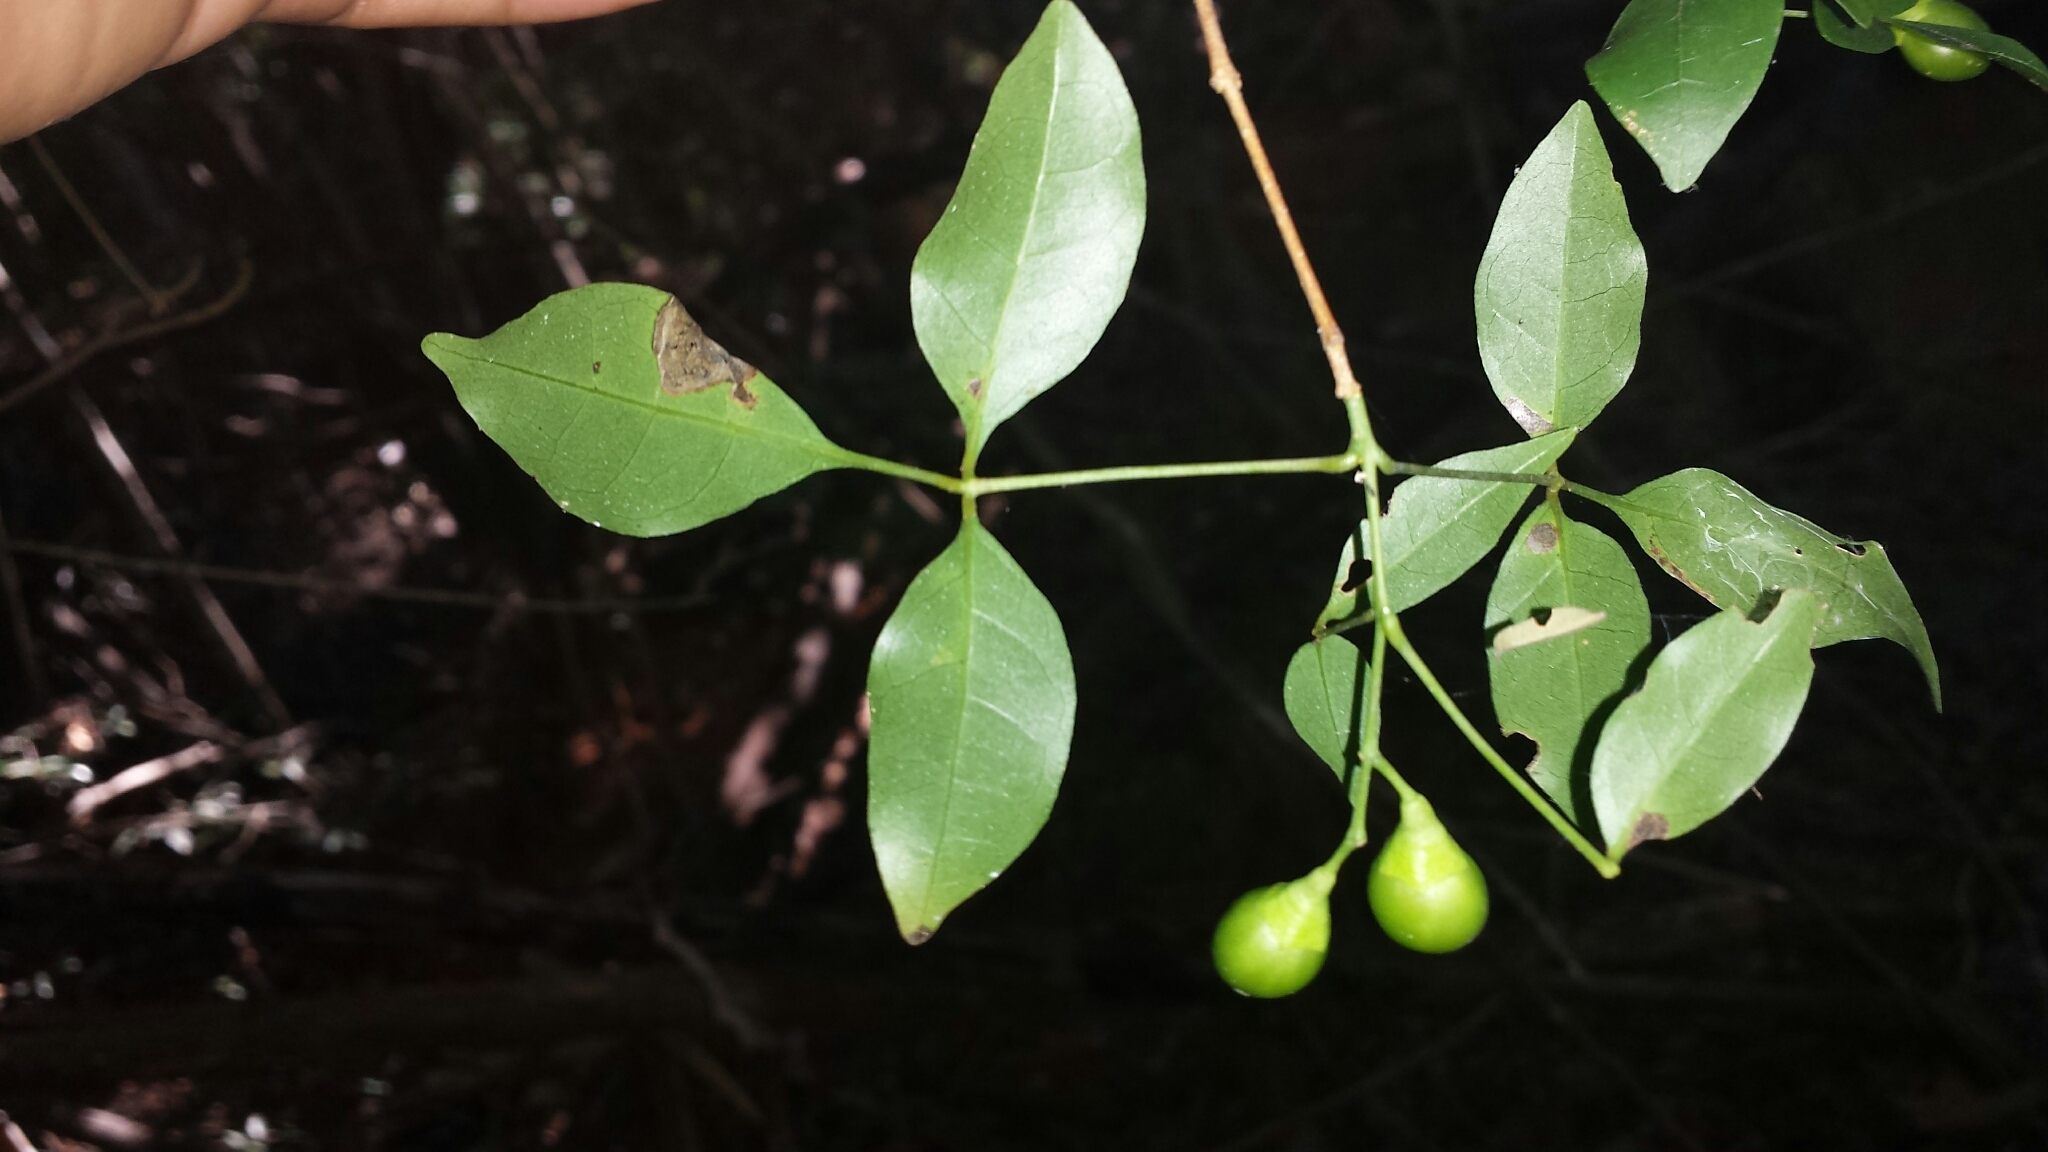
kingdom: Plantae
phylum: Tracheophyta
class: Magnoliopsida
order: Lamiales
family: Lamiaceae
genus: Vitex
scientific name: Vitex pervillei
